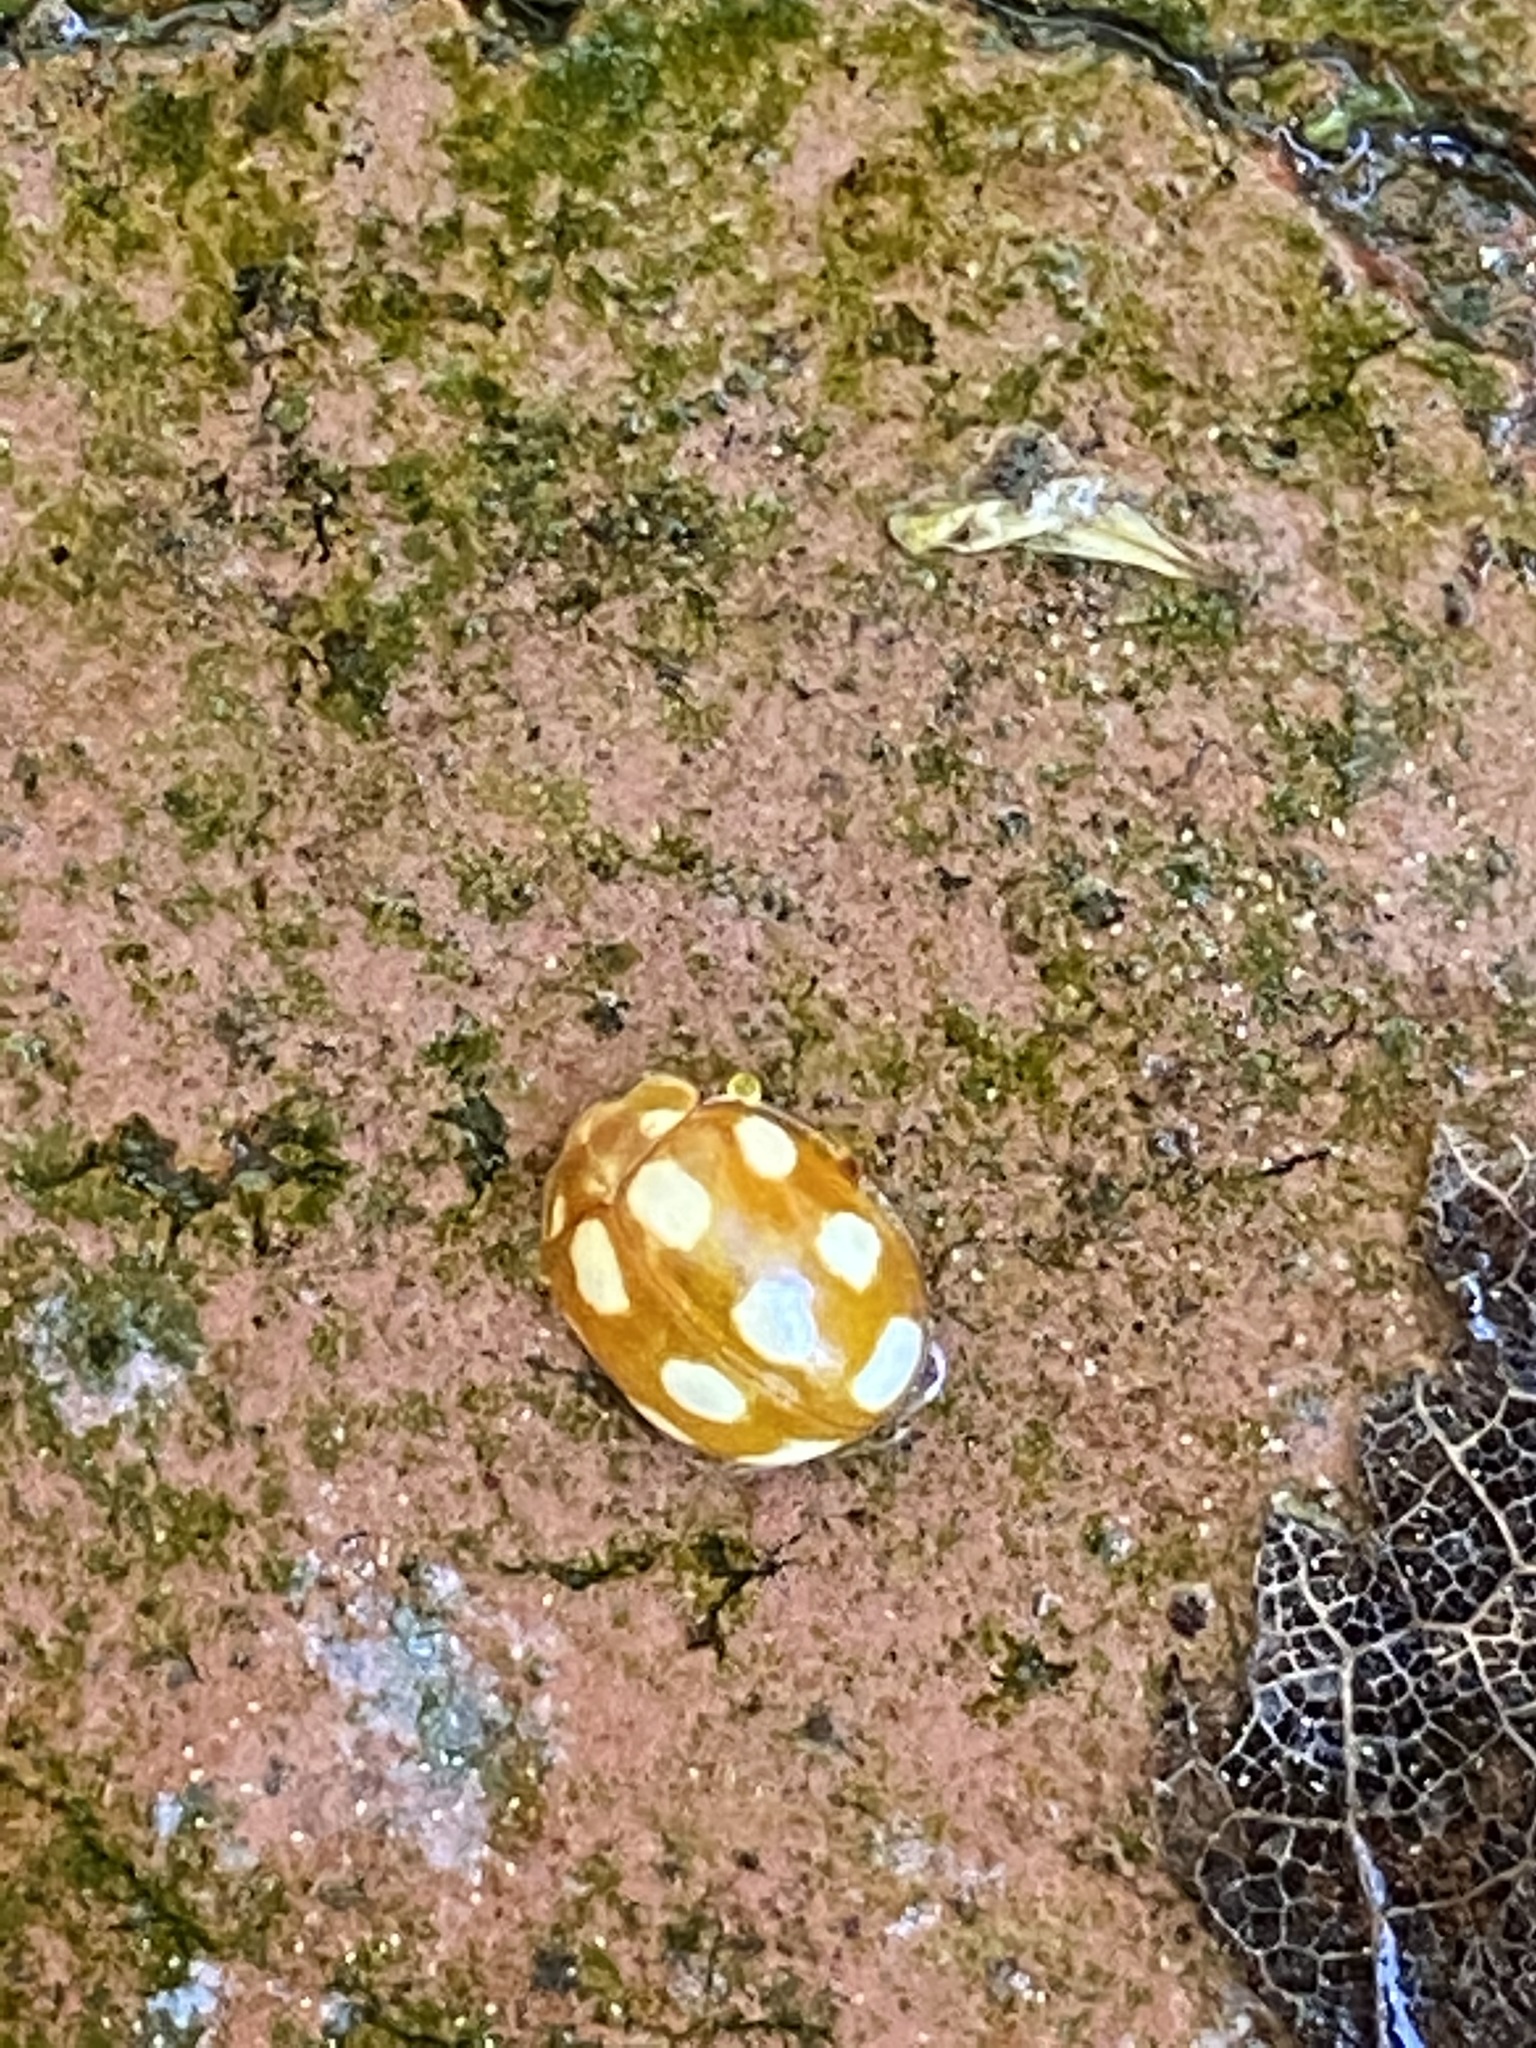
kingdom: Animalia
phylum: Arthropoda
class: Insecta
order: Coleoptera
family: Coccinellidae
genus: Calvia
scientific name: Calvia decemguttata
